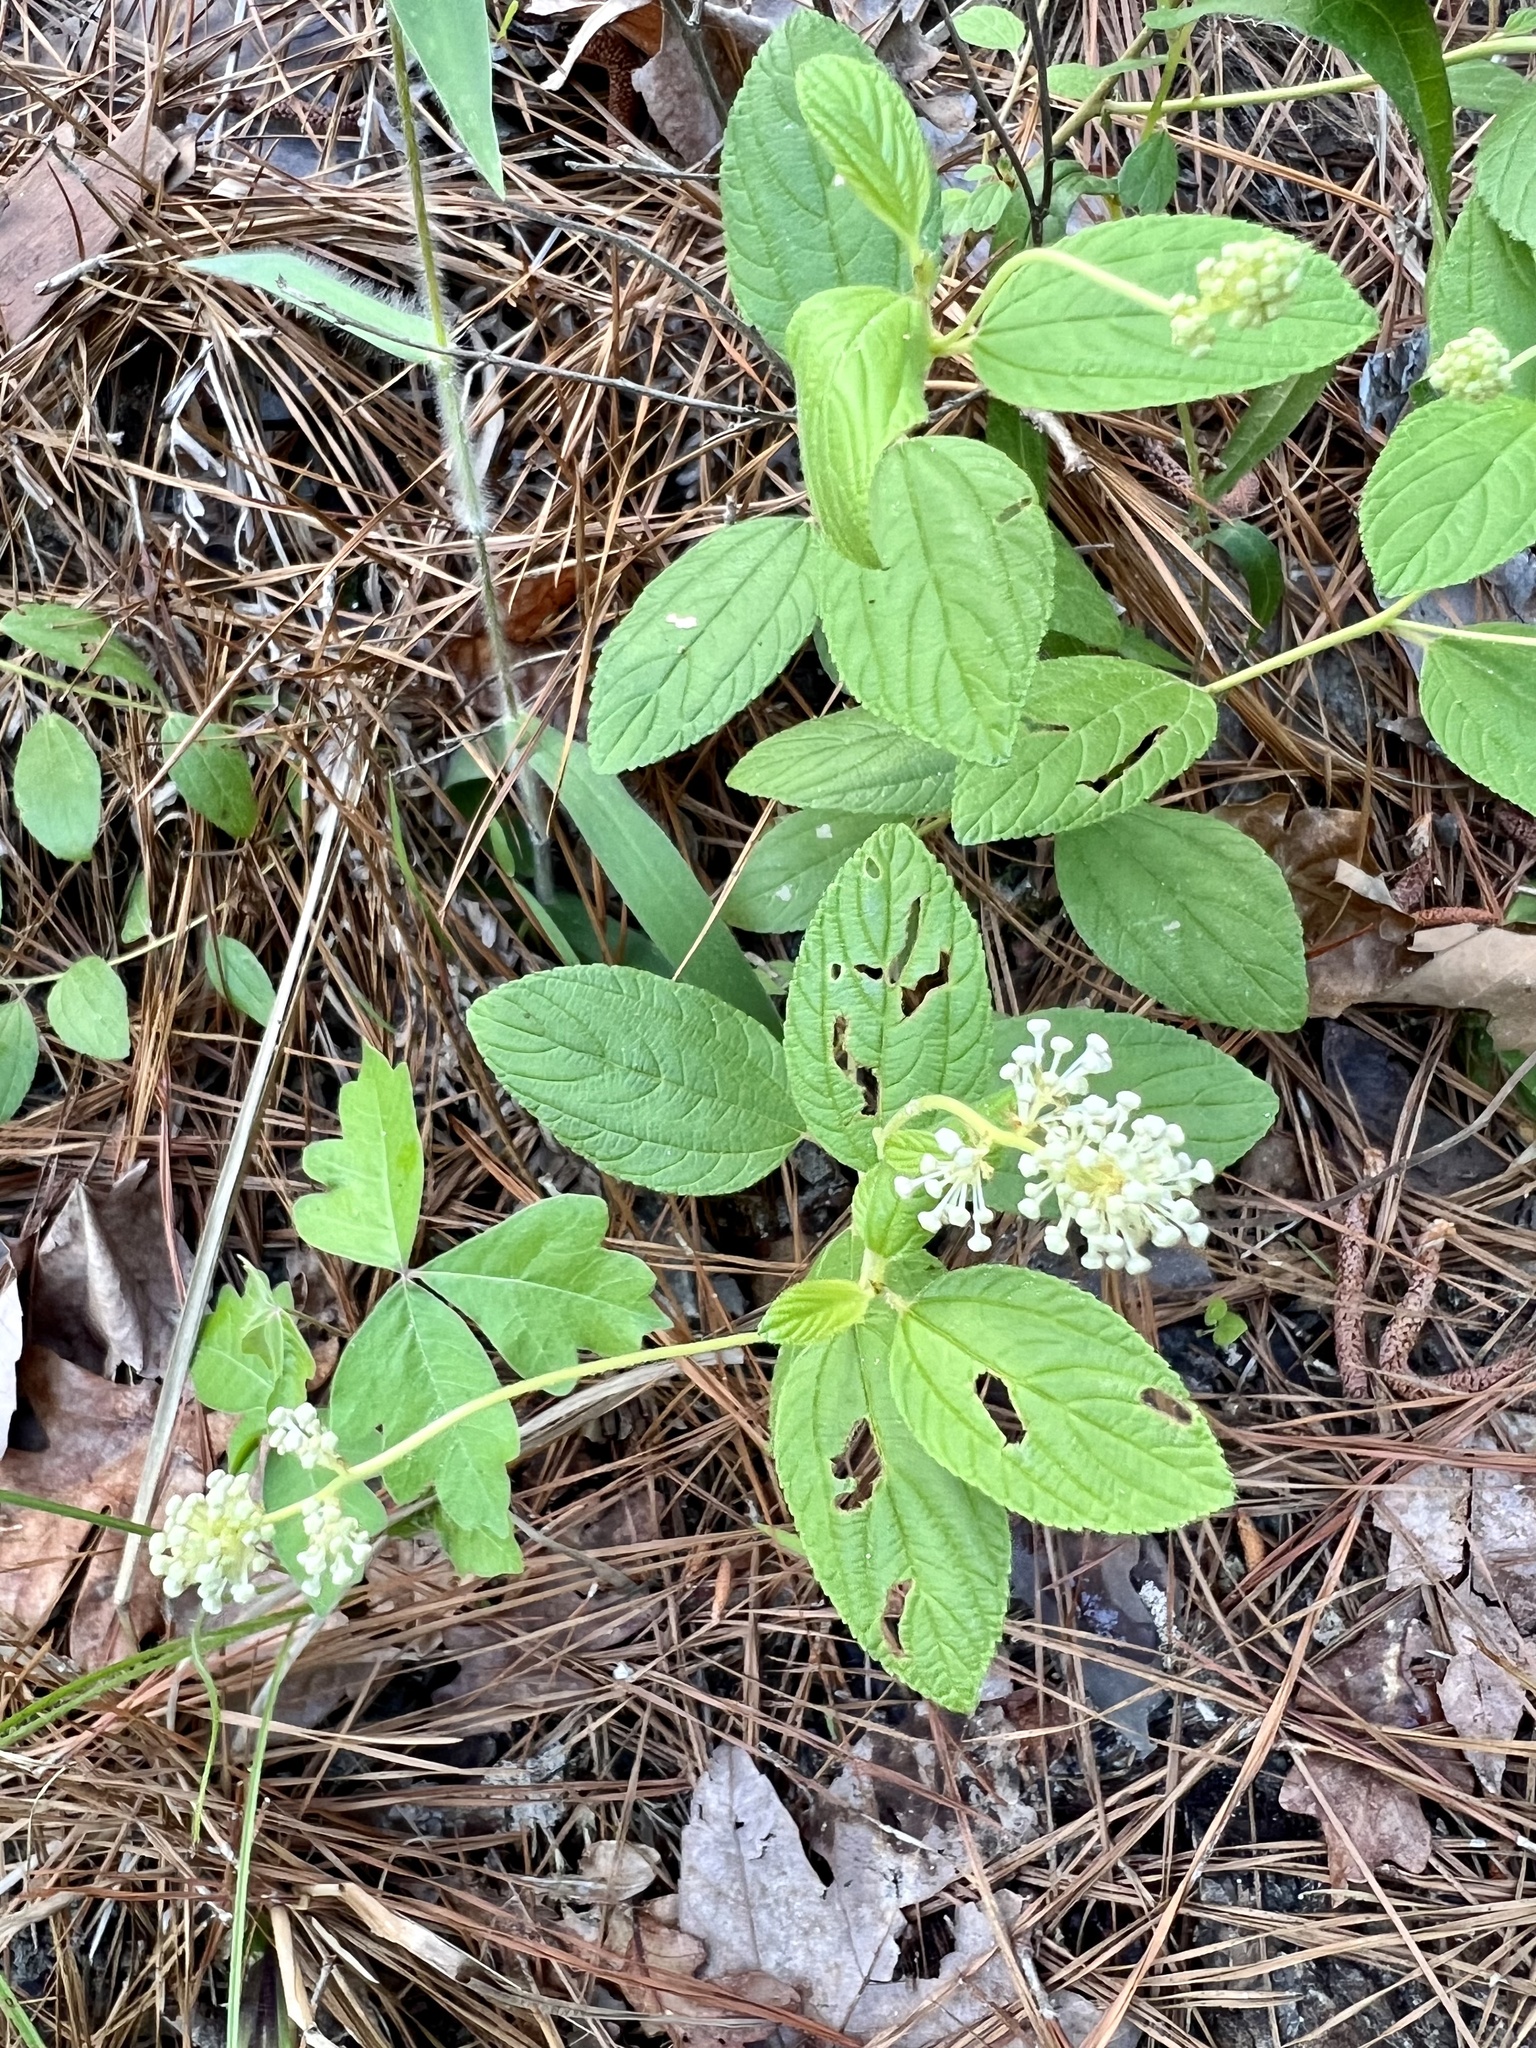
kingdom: Plantae
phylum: Tracheophyta
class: Magnoliopsida
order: Rosales
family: Rhamnaceae
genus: Ceanothus
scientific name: Ceanothus americanus
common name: Redroot
